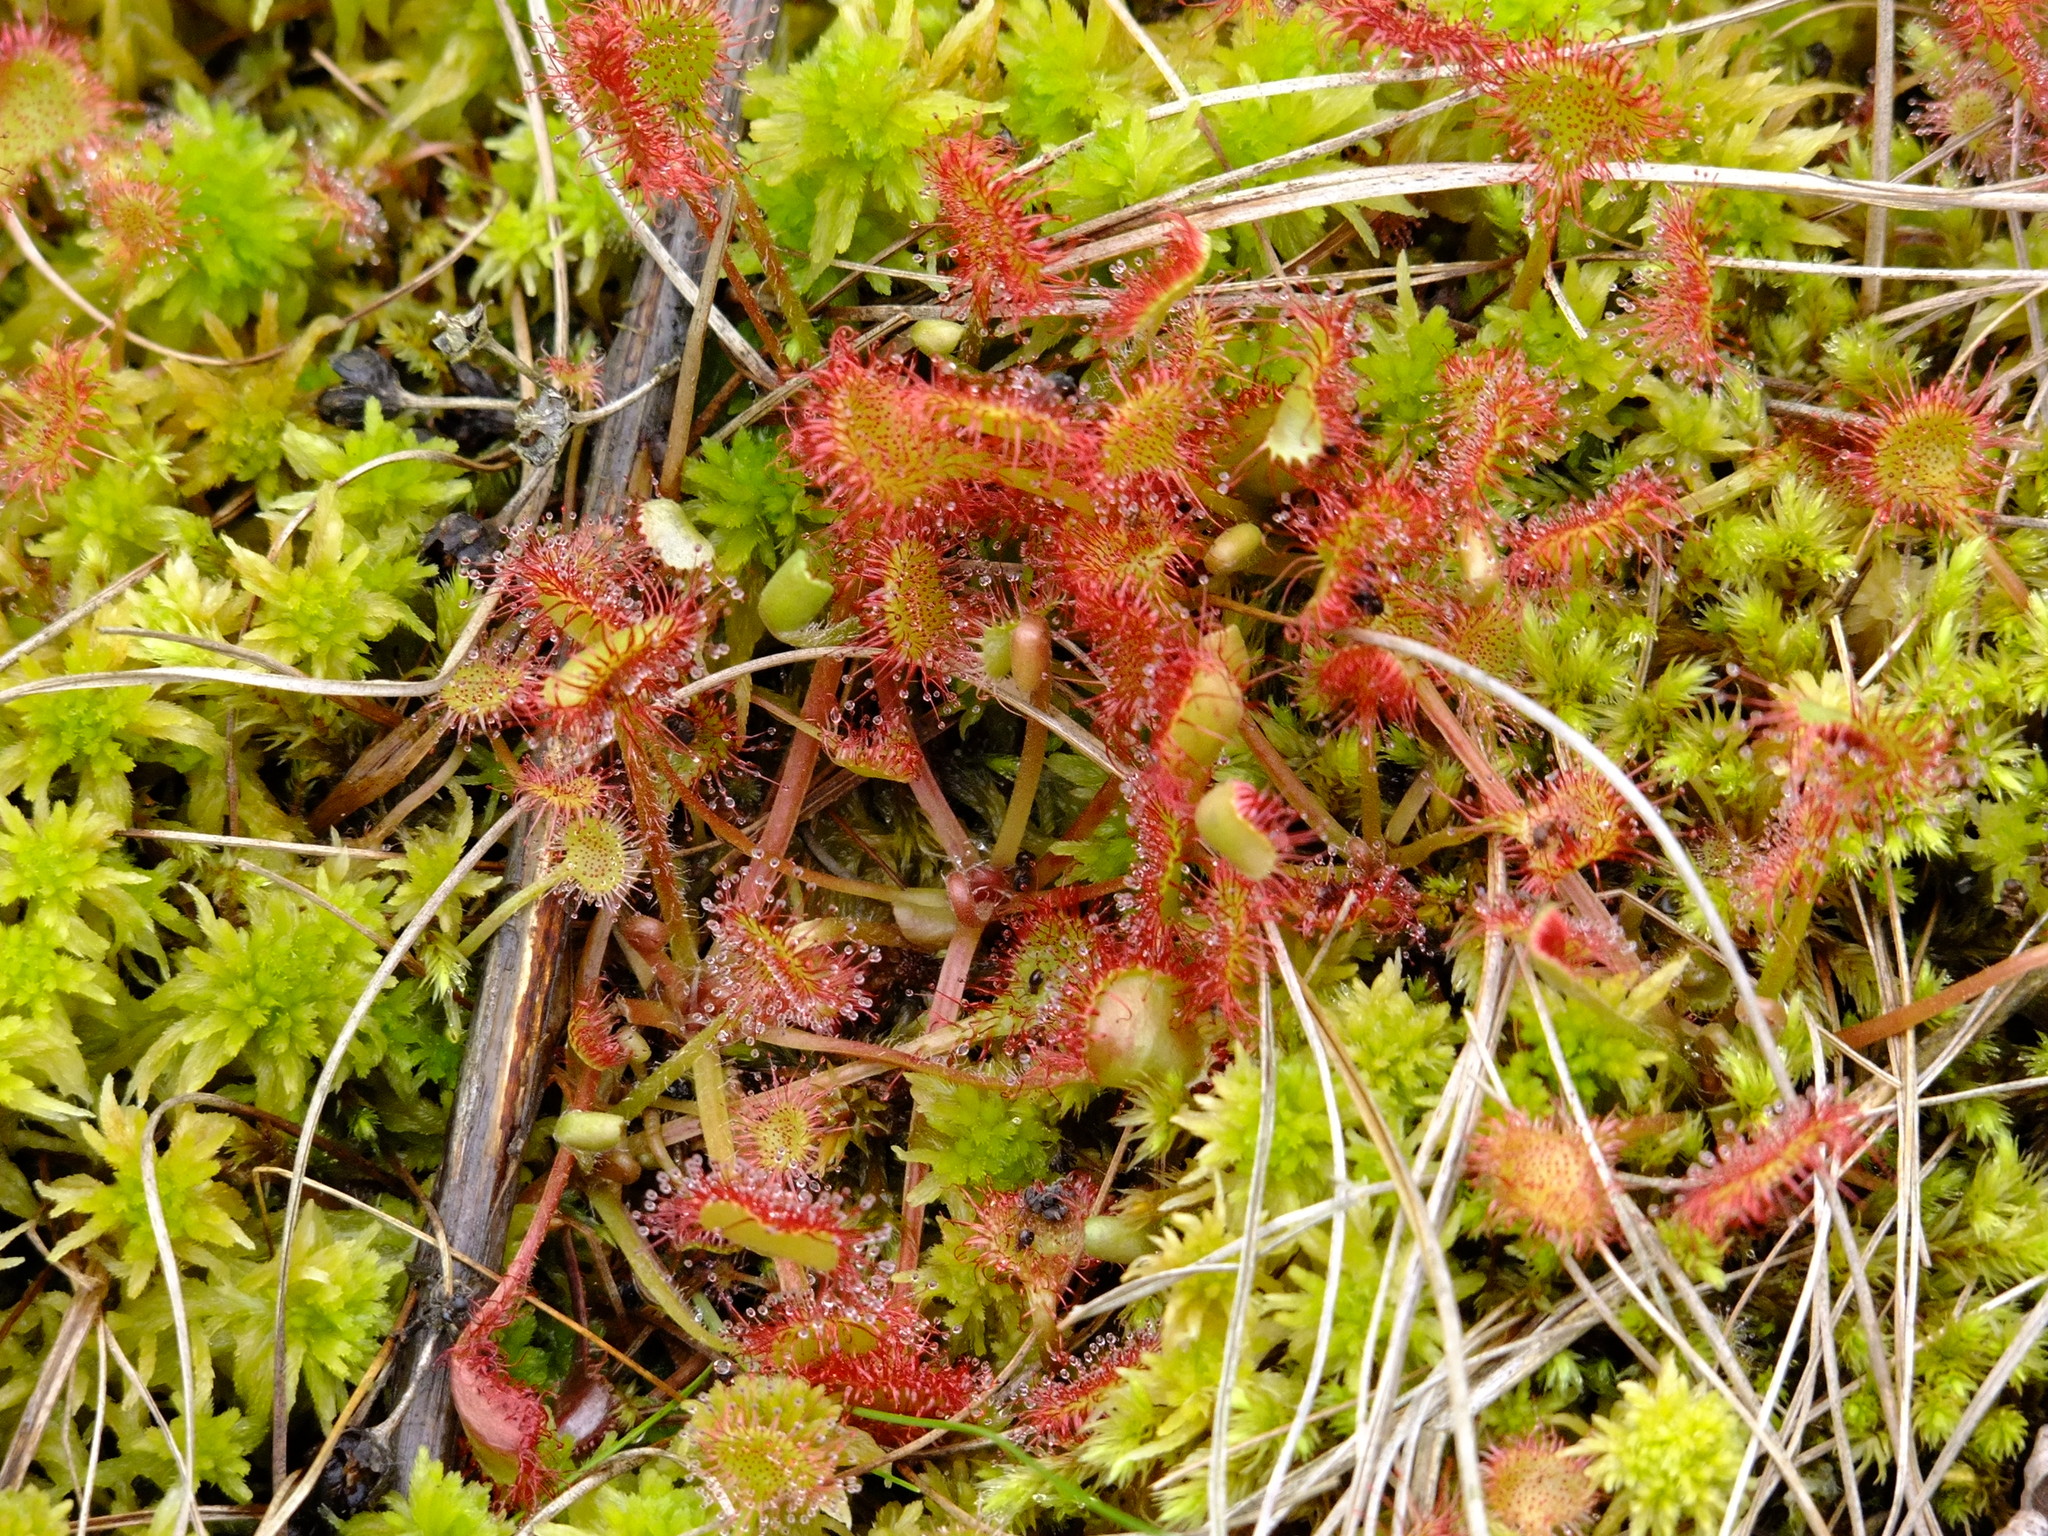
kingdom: Plantae
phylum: Tracheophyta
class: Magnoliopsida
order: Caryophyllales
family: Droseraceae
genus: Drosera
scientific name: Drosera rotundifolia
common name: Round-leaved sundew
